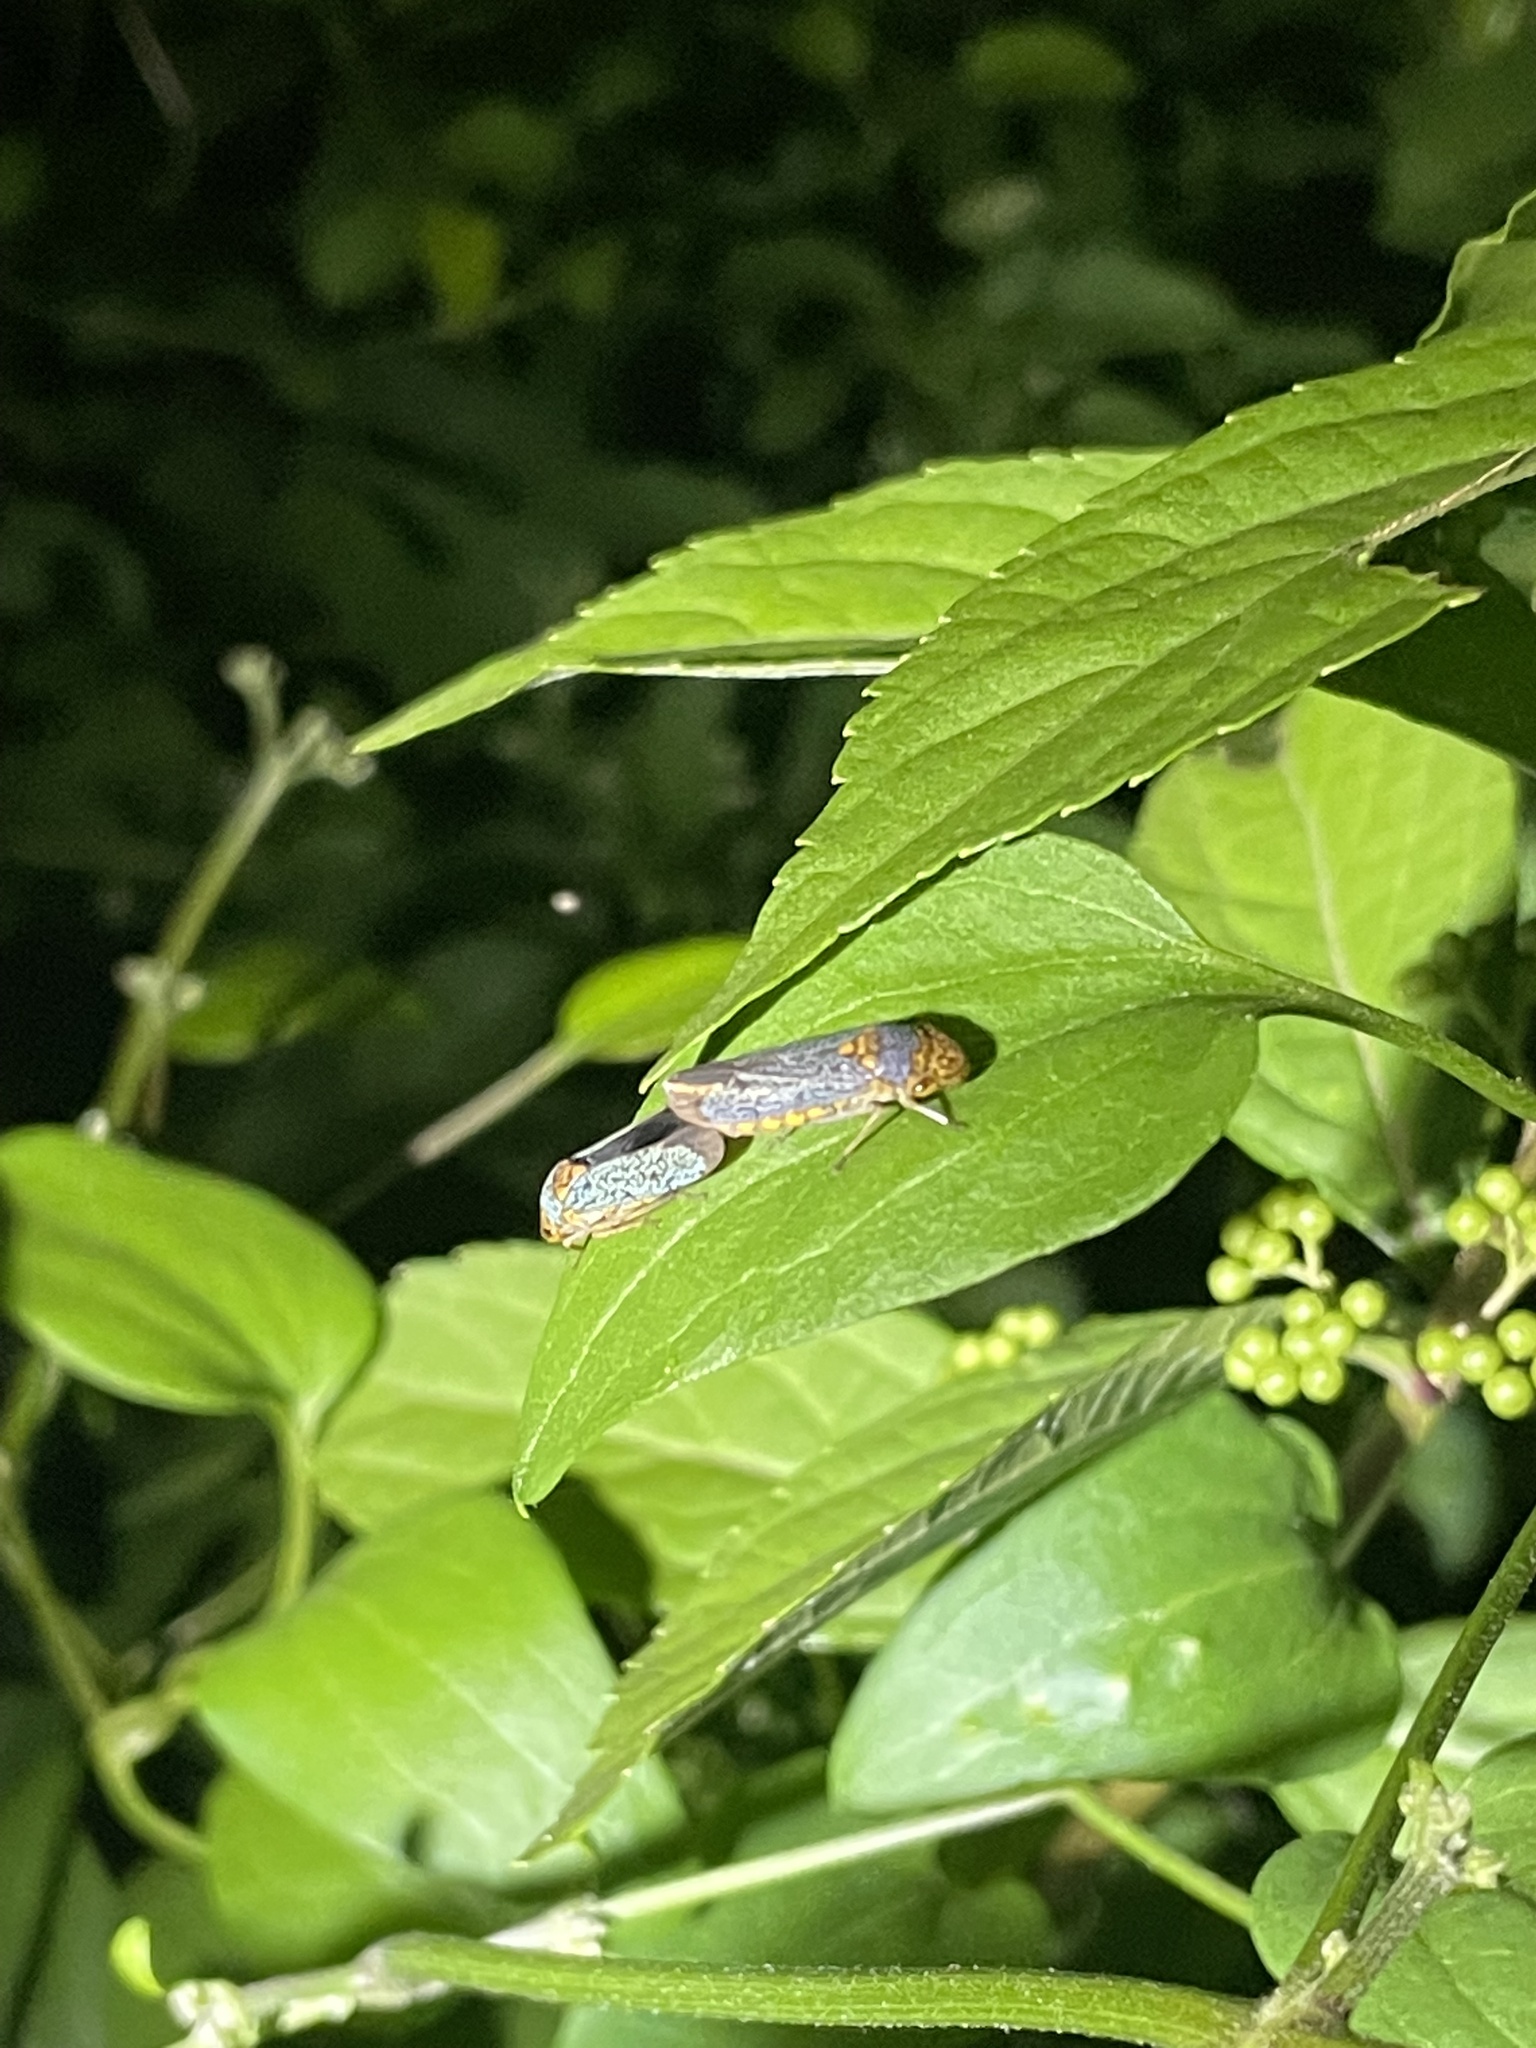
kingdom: Animalia
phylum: Arthropoda
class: Insecta
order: Hemiptera
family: Cicadellidae
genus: Oncometopia
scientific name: Oncometopia orbona
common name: Broad-headed sharpshooter
